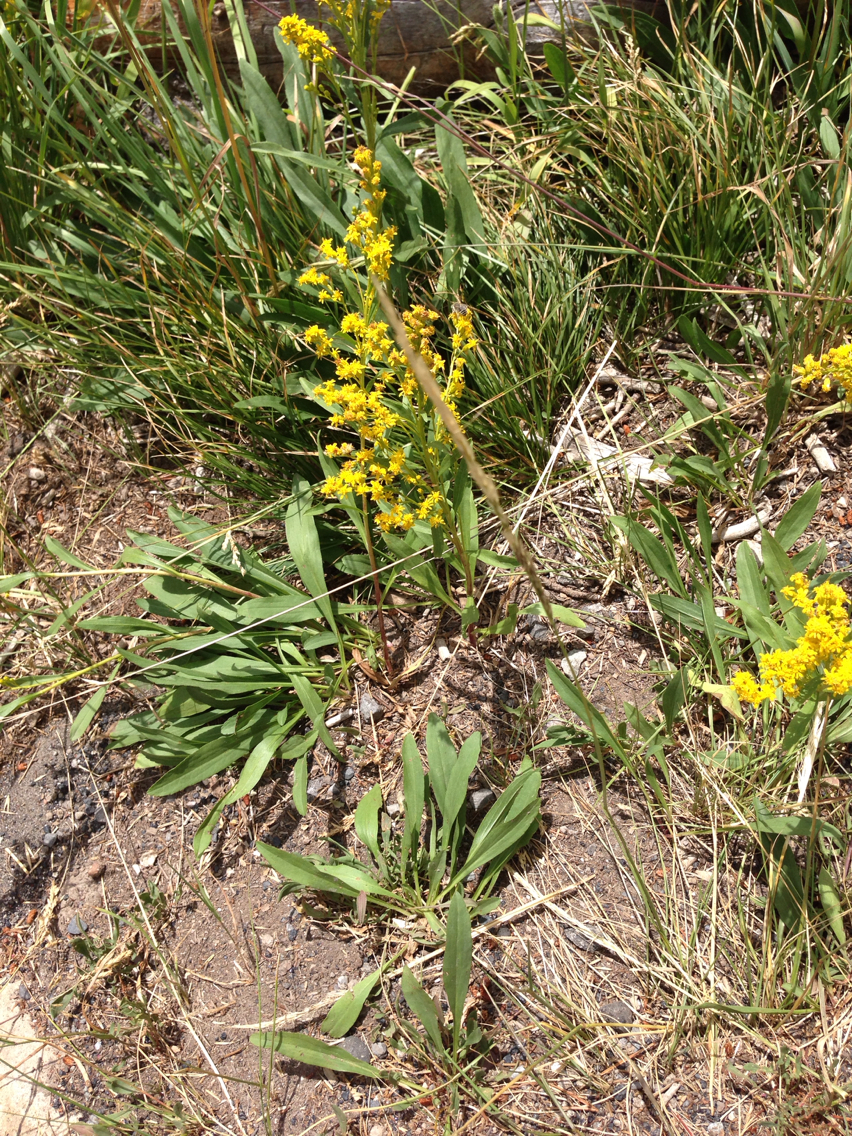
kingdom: Plantae
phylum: Tracheophyta
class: Magnoliopsida
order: Asterales
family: Asteraceae
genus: Solidago
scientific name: Solidago missouriensis
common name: Prairie goldenrod
